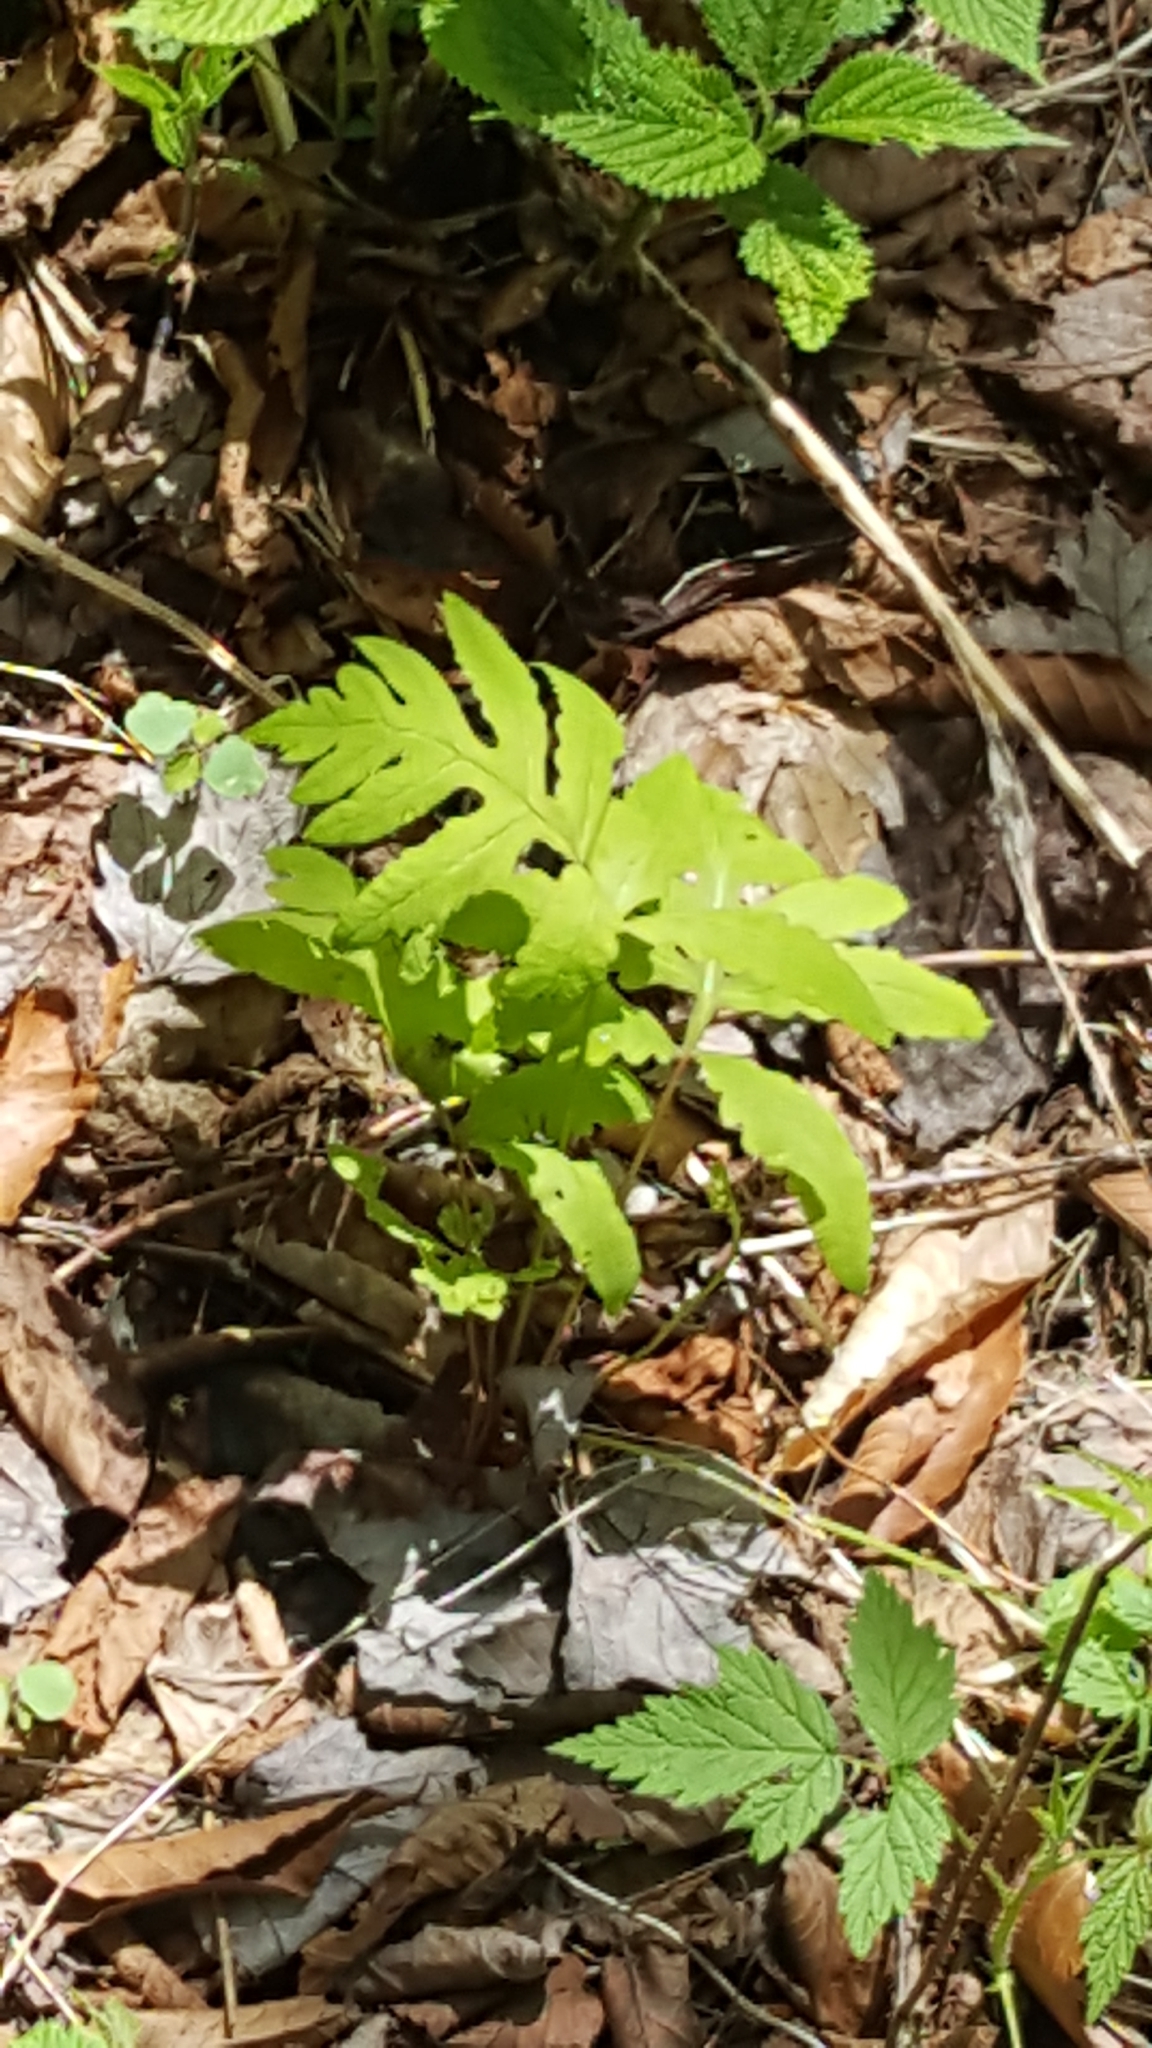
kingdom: Plantae
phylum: Tracheophyta
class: Polypodiopsida
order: Polypodiales
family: Onocleaceae
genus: Onoclea
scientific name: Onoclea sensibilis
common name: Sensitive fern
